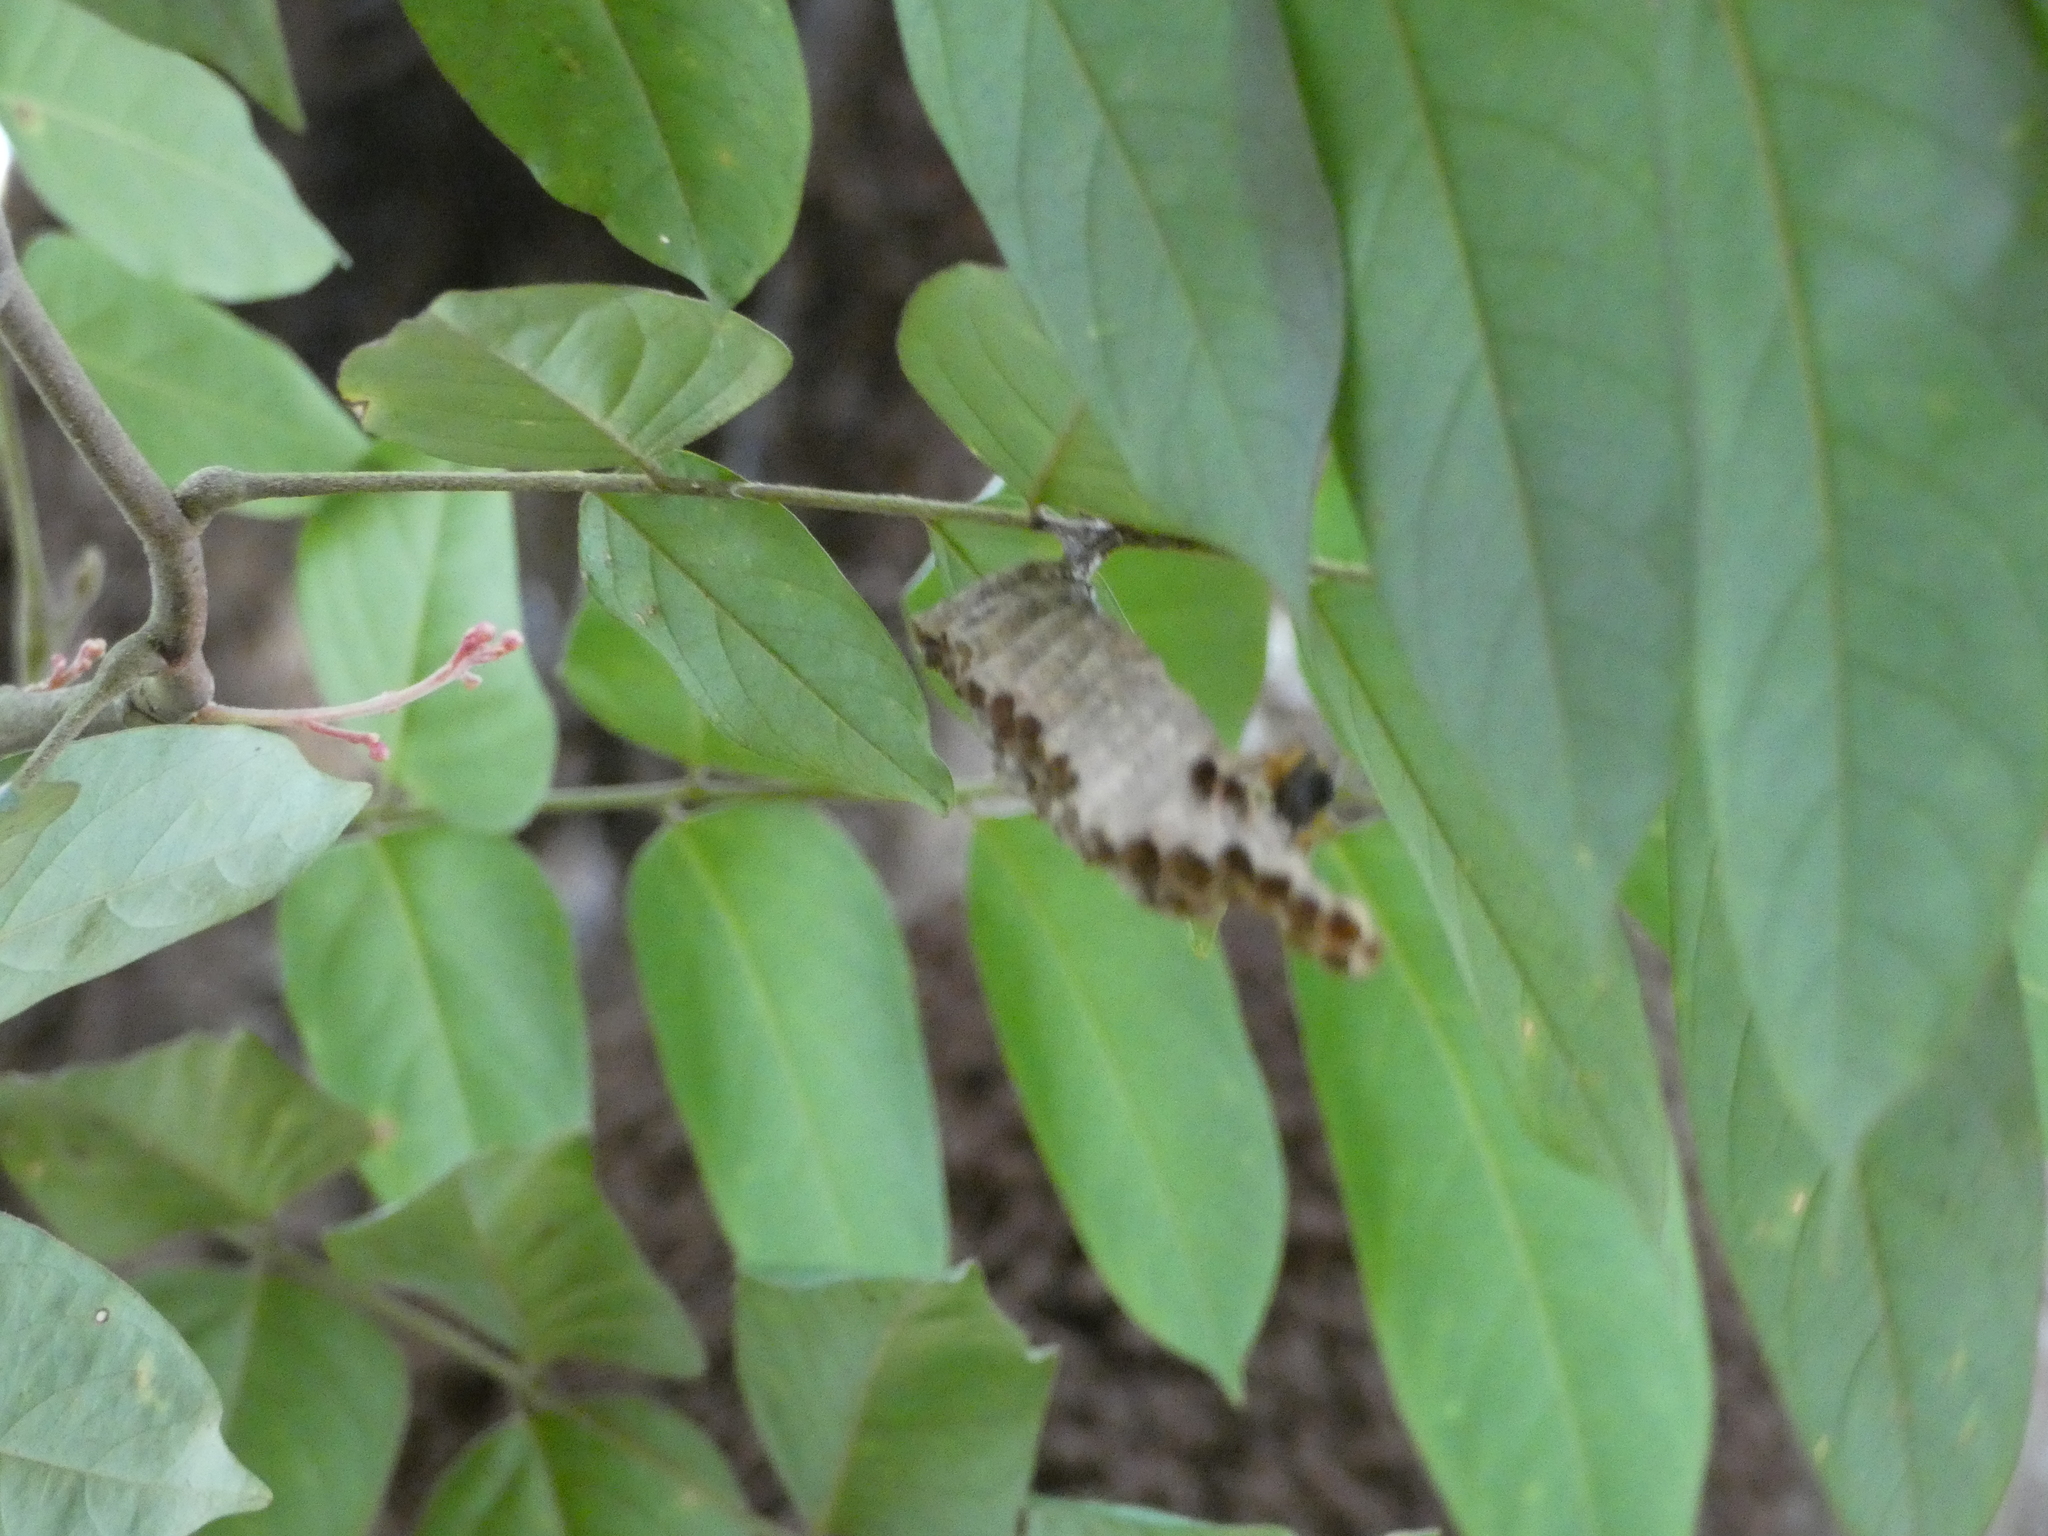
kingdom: Animalia
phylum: Arthropoda
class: Insecta
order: Hymenoptera
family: Vespidae
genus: Mischocyttarus
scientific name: Mischocyttarus cerberus
